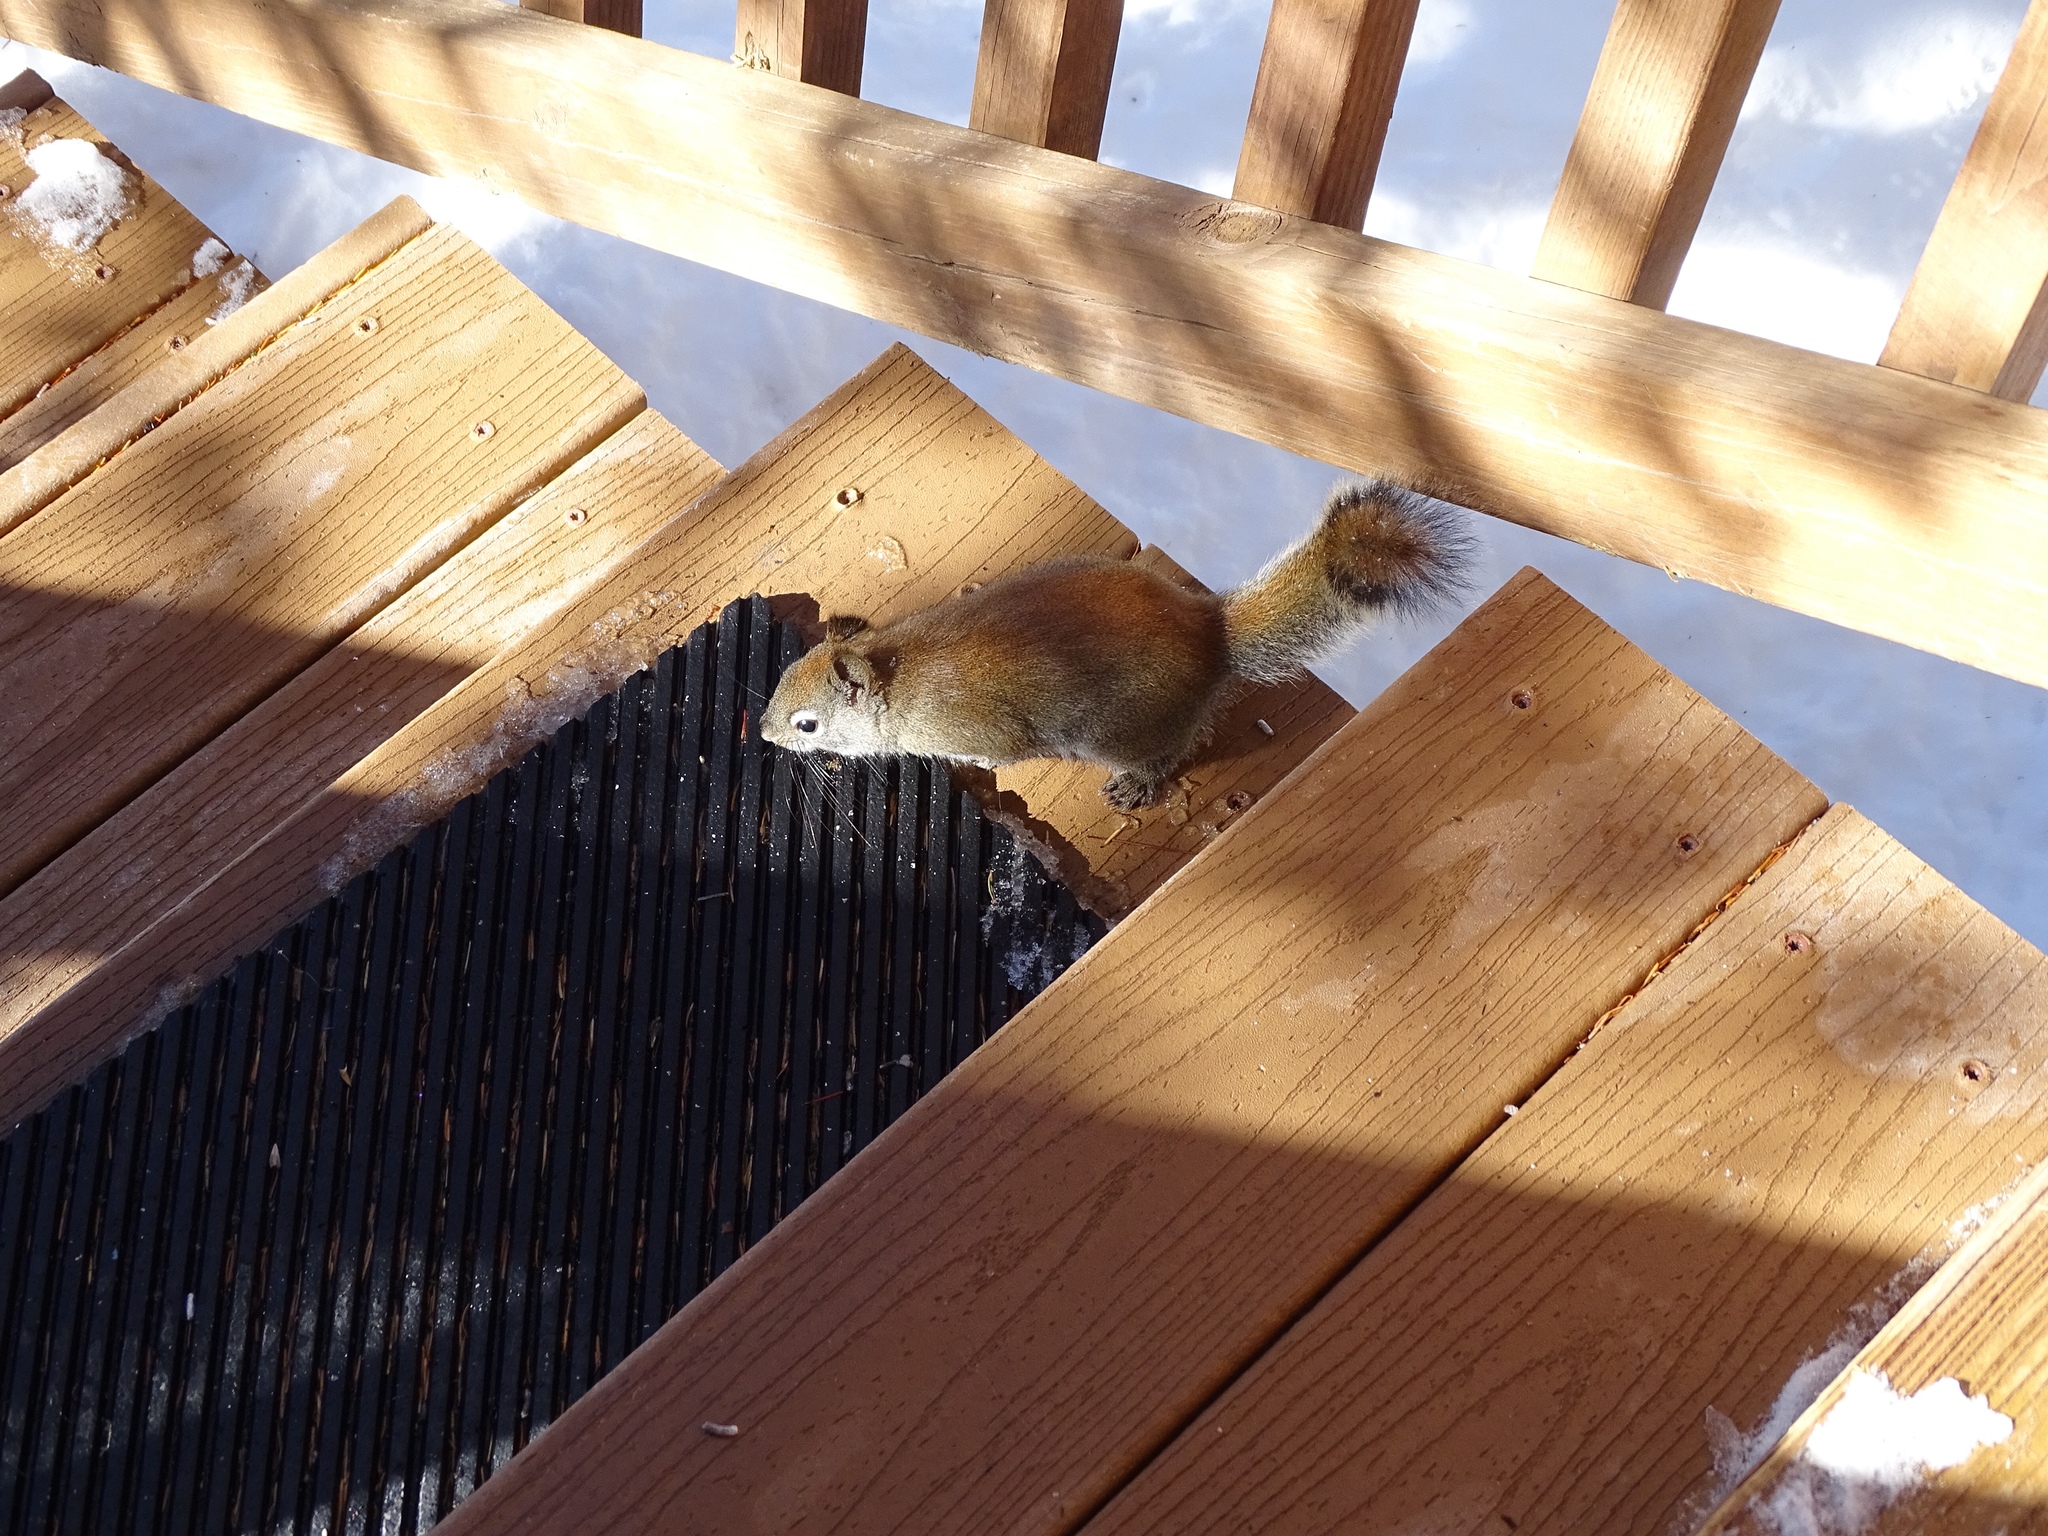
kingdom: Animalia
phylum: Chordata
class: Mammalia
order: Rodentia
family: Sciuridae
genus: Tamiasciurus
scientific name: Tamiasciurus hudsonicus
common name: Red squirrel
